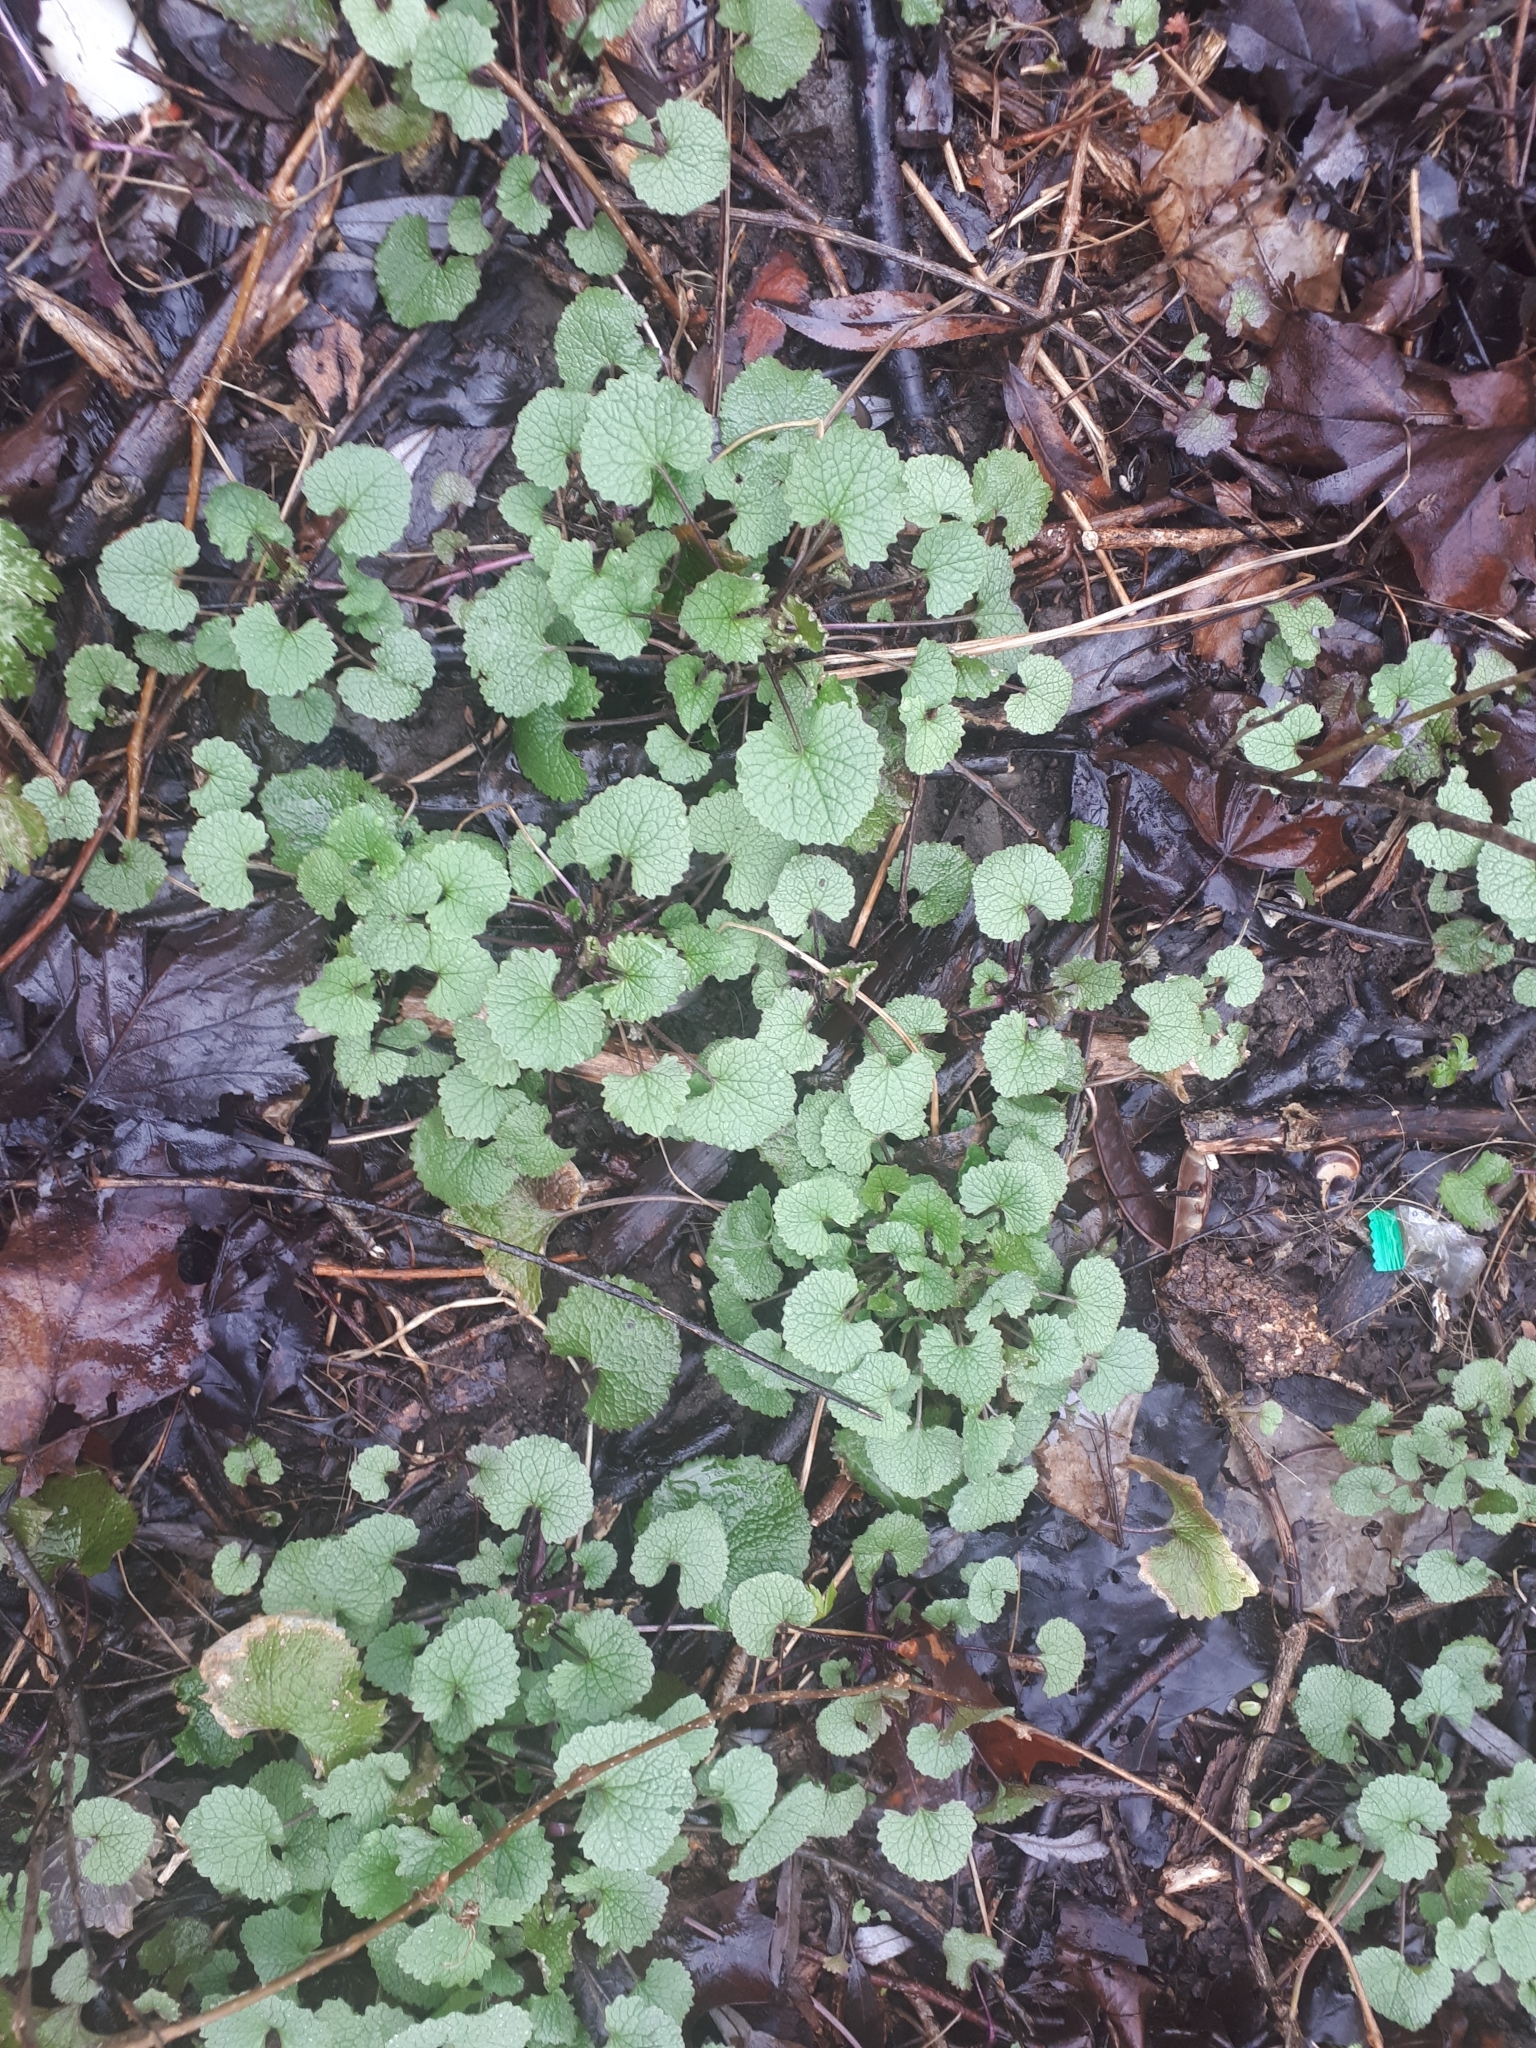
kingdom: Plantae
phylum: Tracheophyta
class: Magnoliopsida
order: Brassicales
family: Brassicaceae
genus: Alliaria
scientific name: Alliaria petiolata
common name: Garlic mustard
